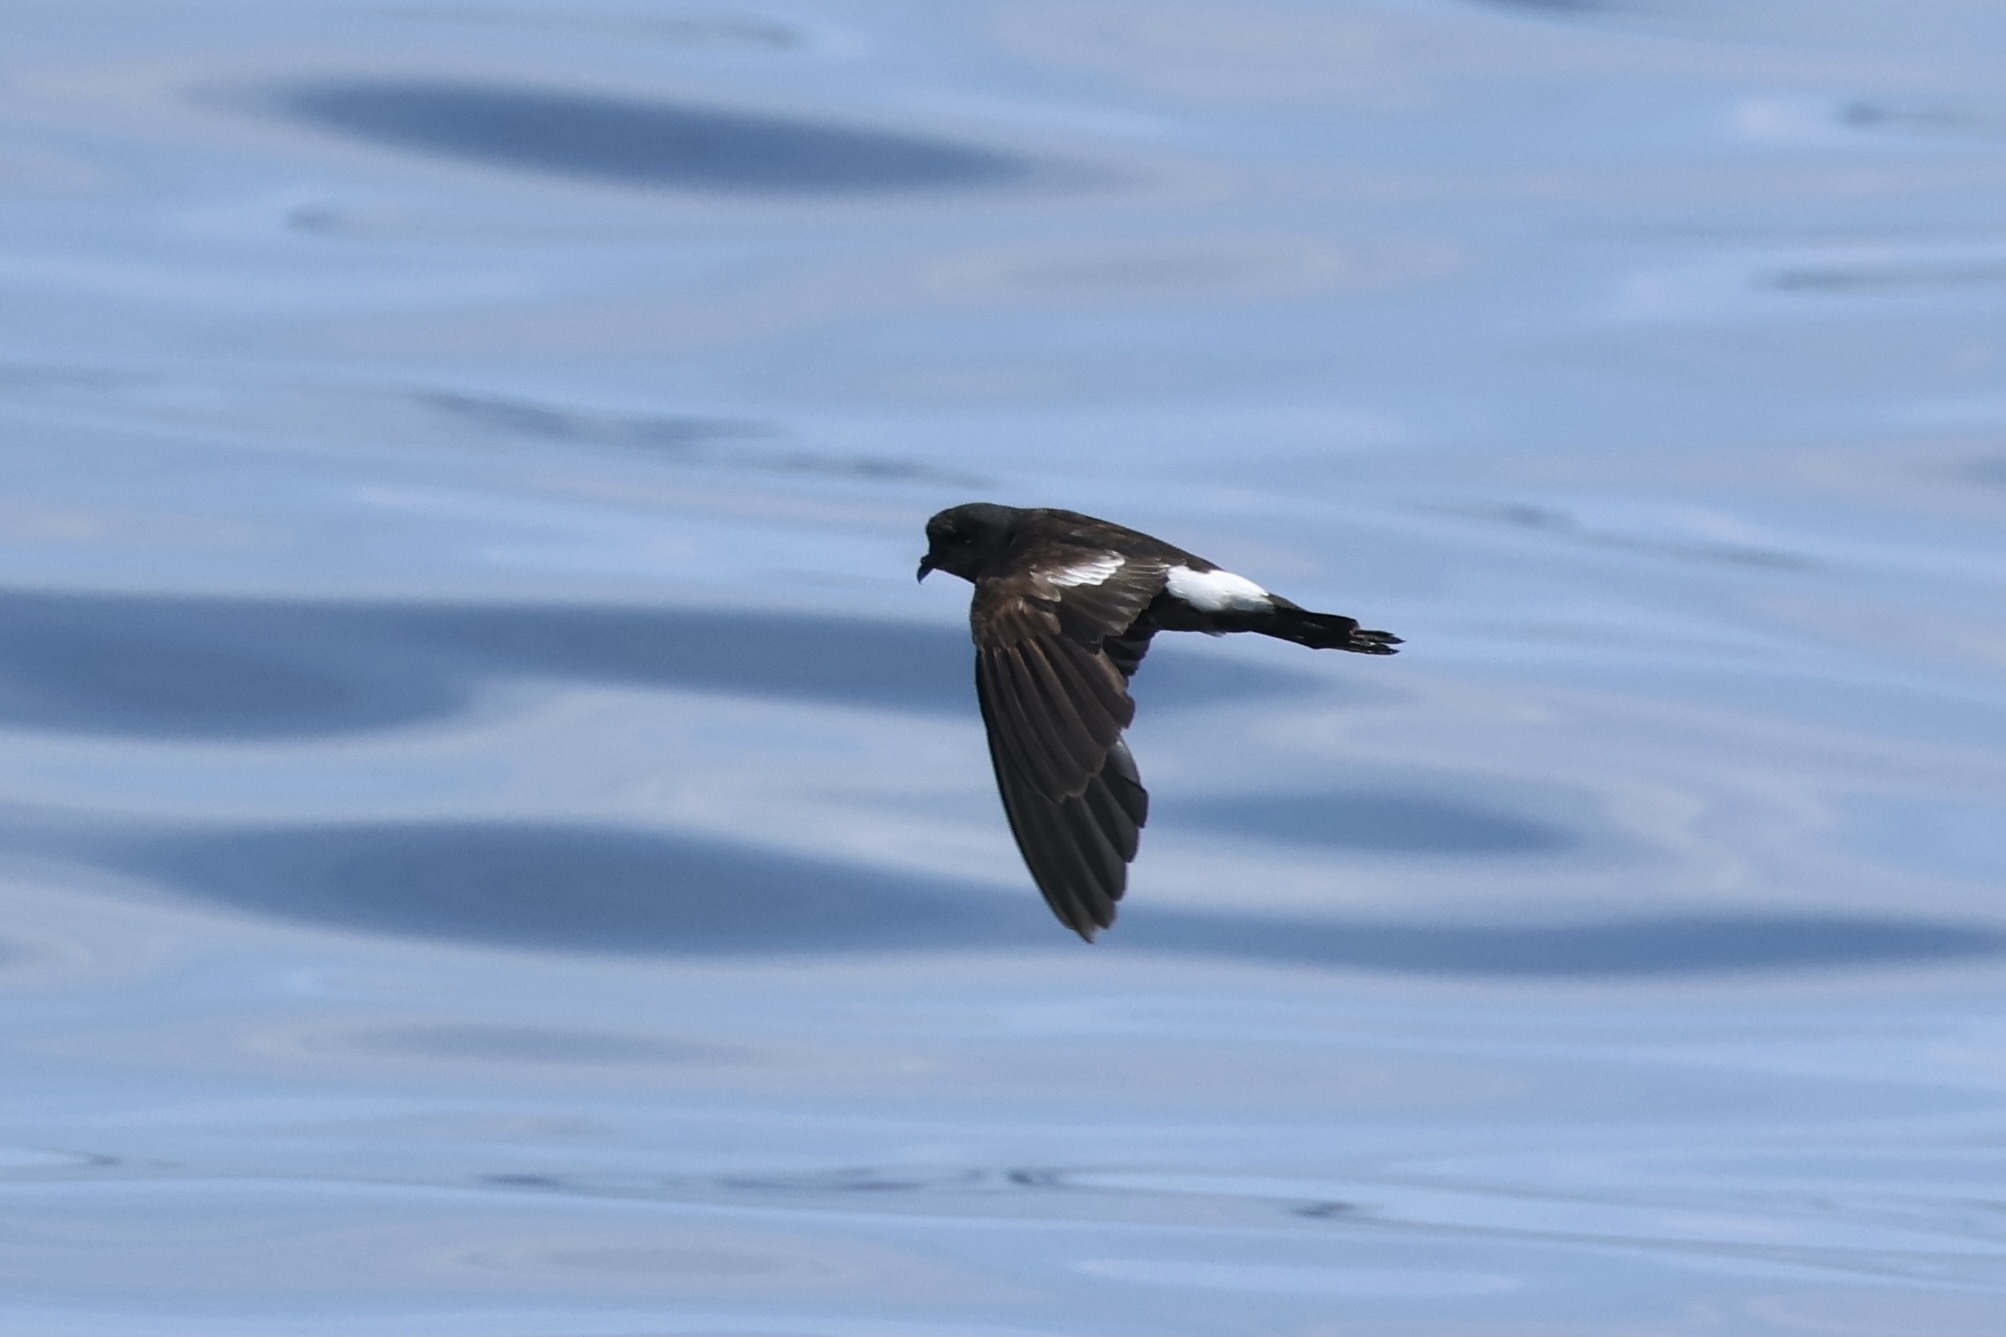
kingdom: Animalia
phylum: Chordata
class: Aves
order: Procellariiformes
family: Hydrobatidae
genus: Oceanites
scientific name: Oceanites oceanicus
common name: Wilson's storm petrel
